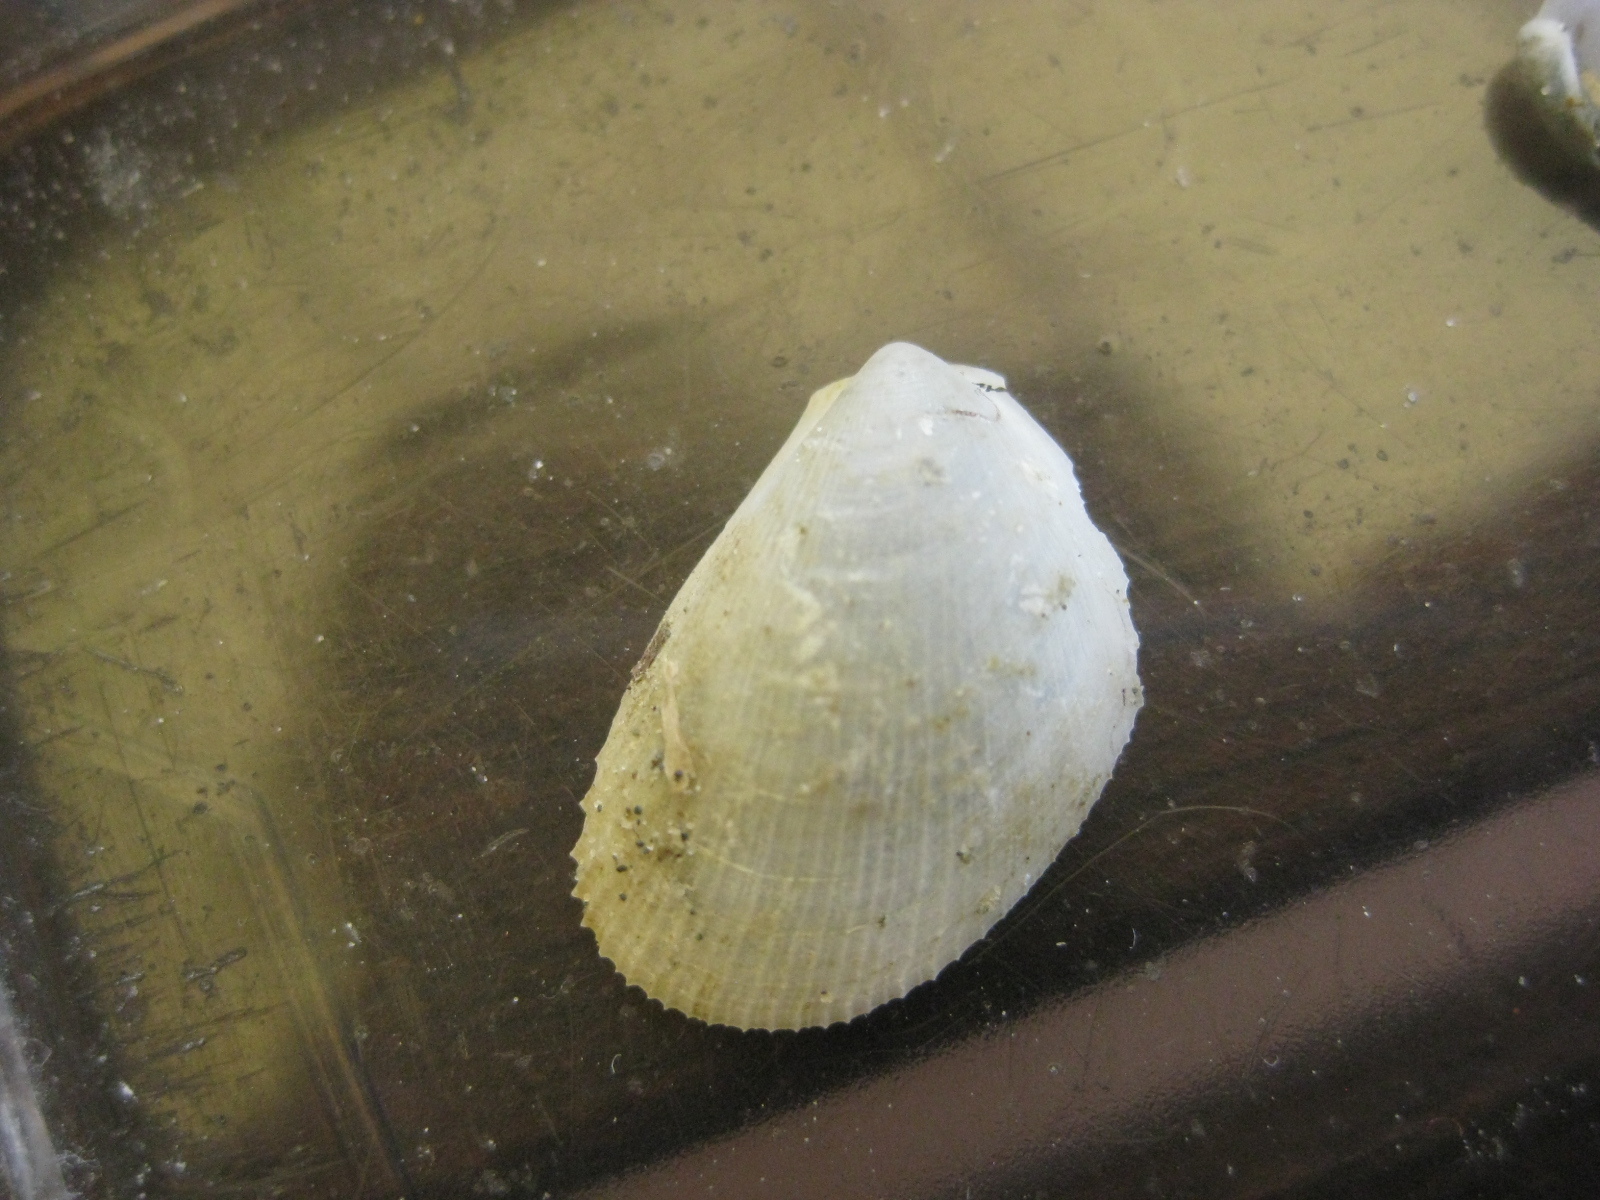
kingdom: Animalia
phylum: Mollusca
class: Bivalvia
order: Limida
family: Limidae
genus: Limaria
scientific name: Limaria orientalis
